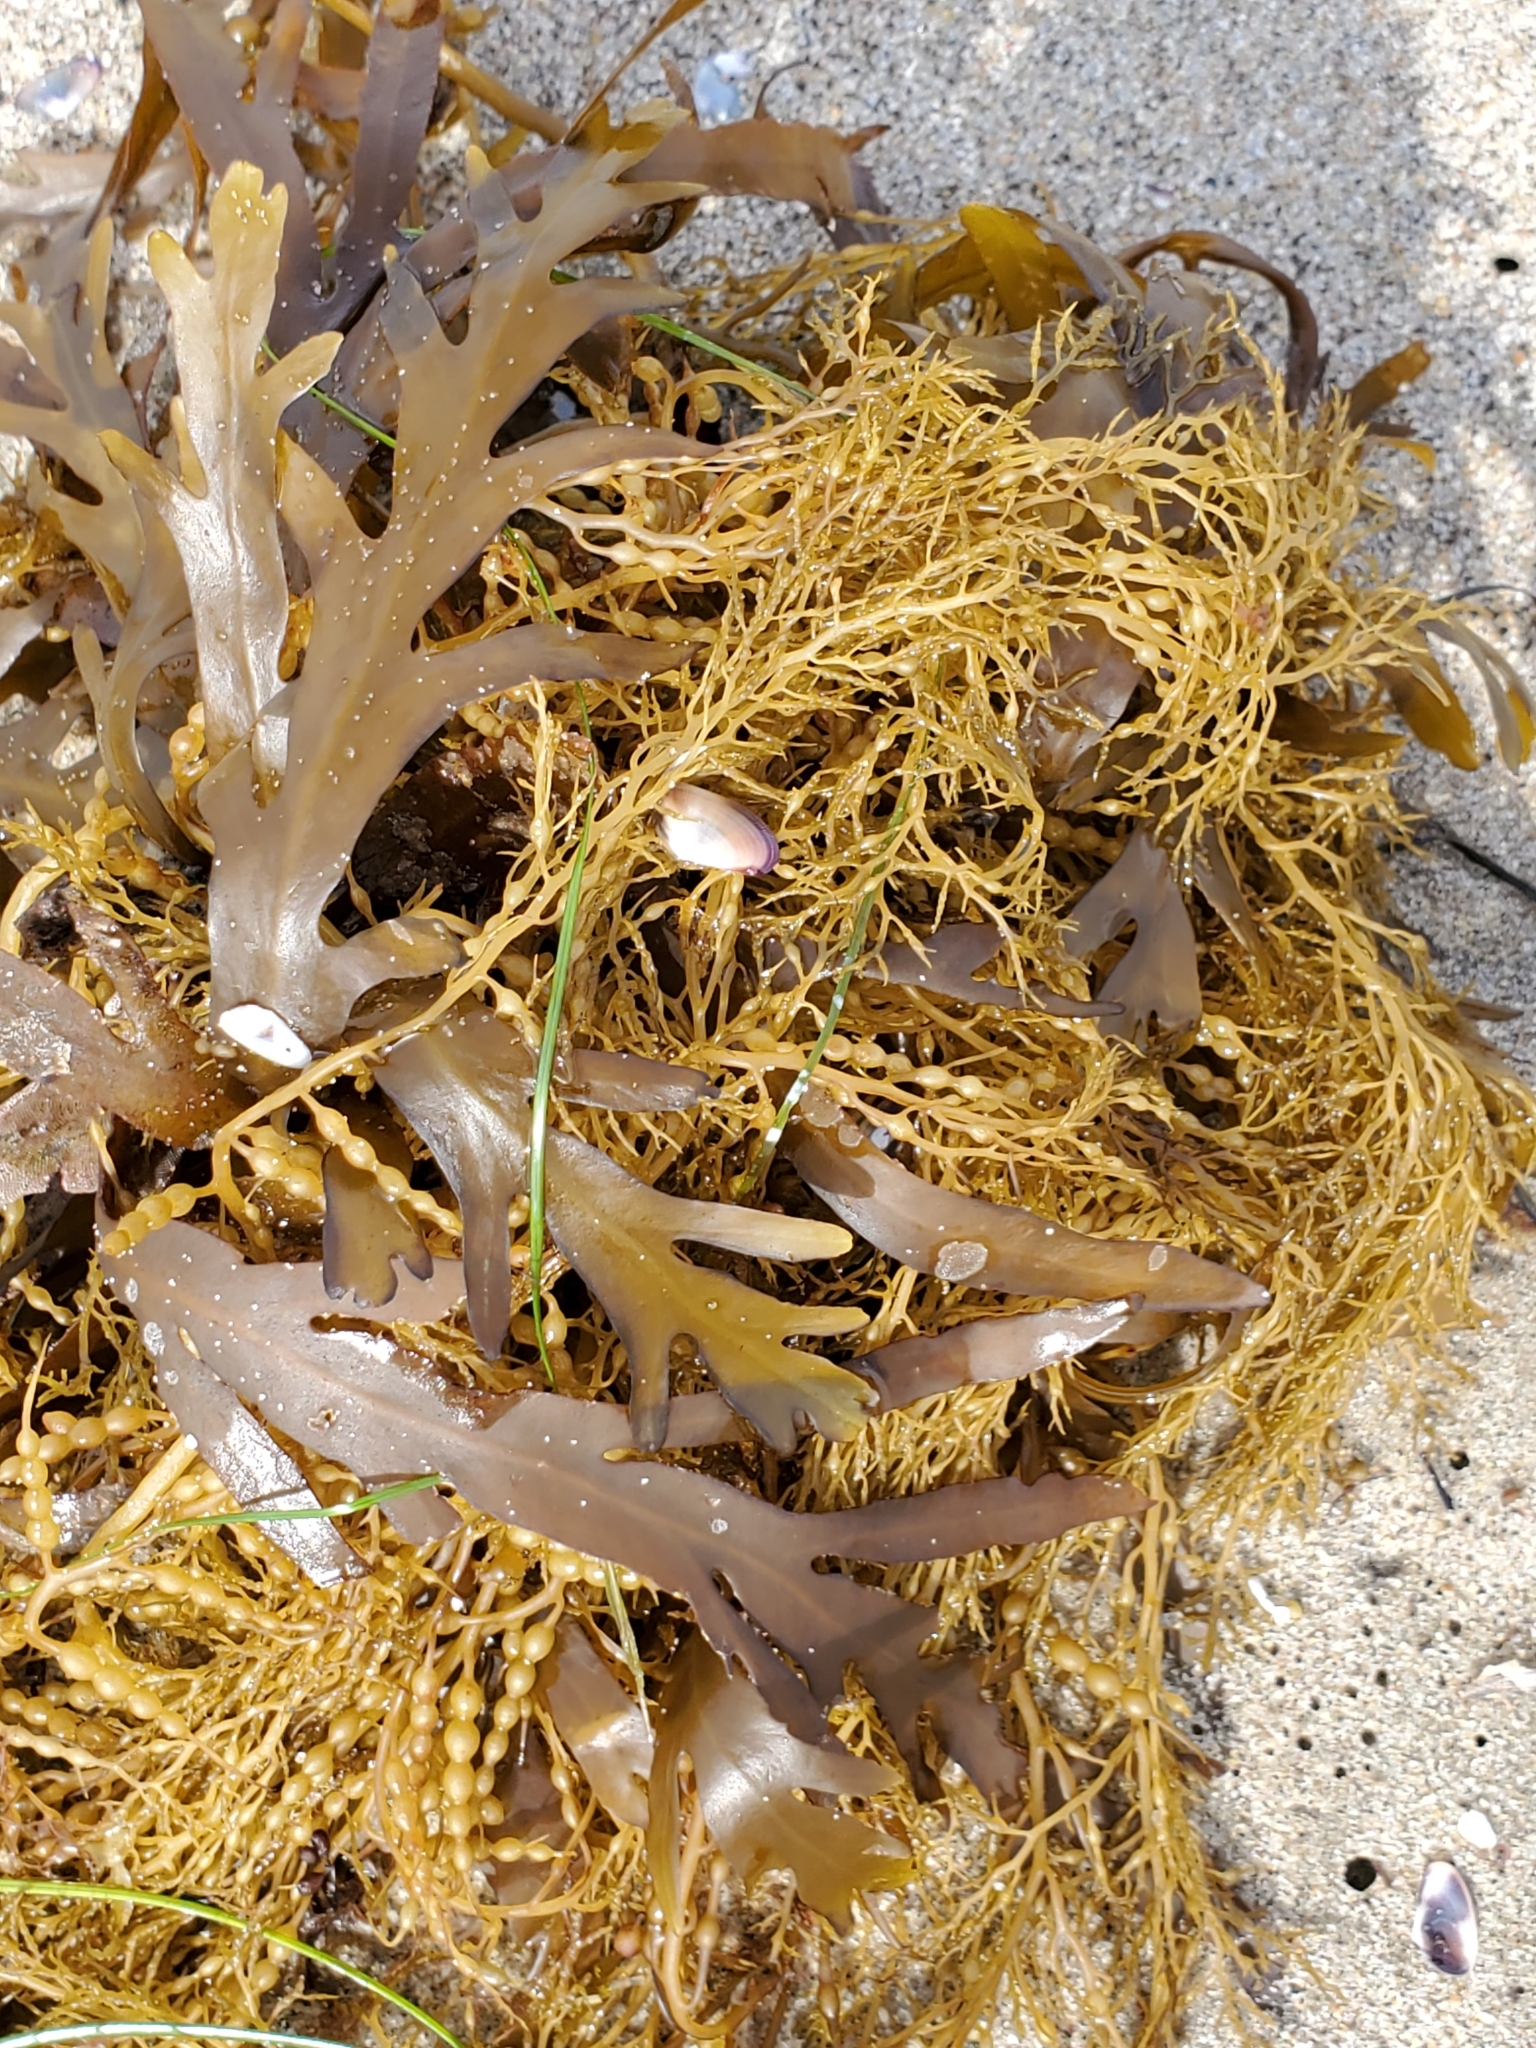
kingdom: Chromista
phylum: Ochrophyta
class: Phaeophyceae
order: Fucales
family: Sargassaceae
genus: Stephanocystis
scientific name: Stephanocystis
